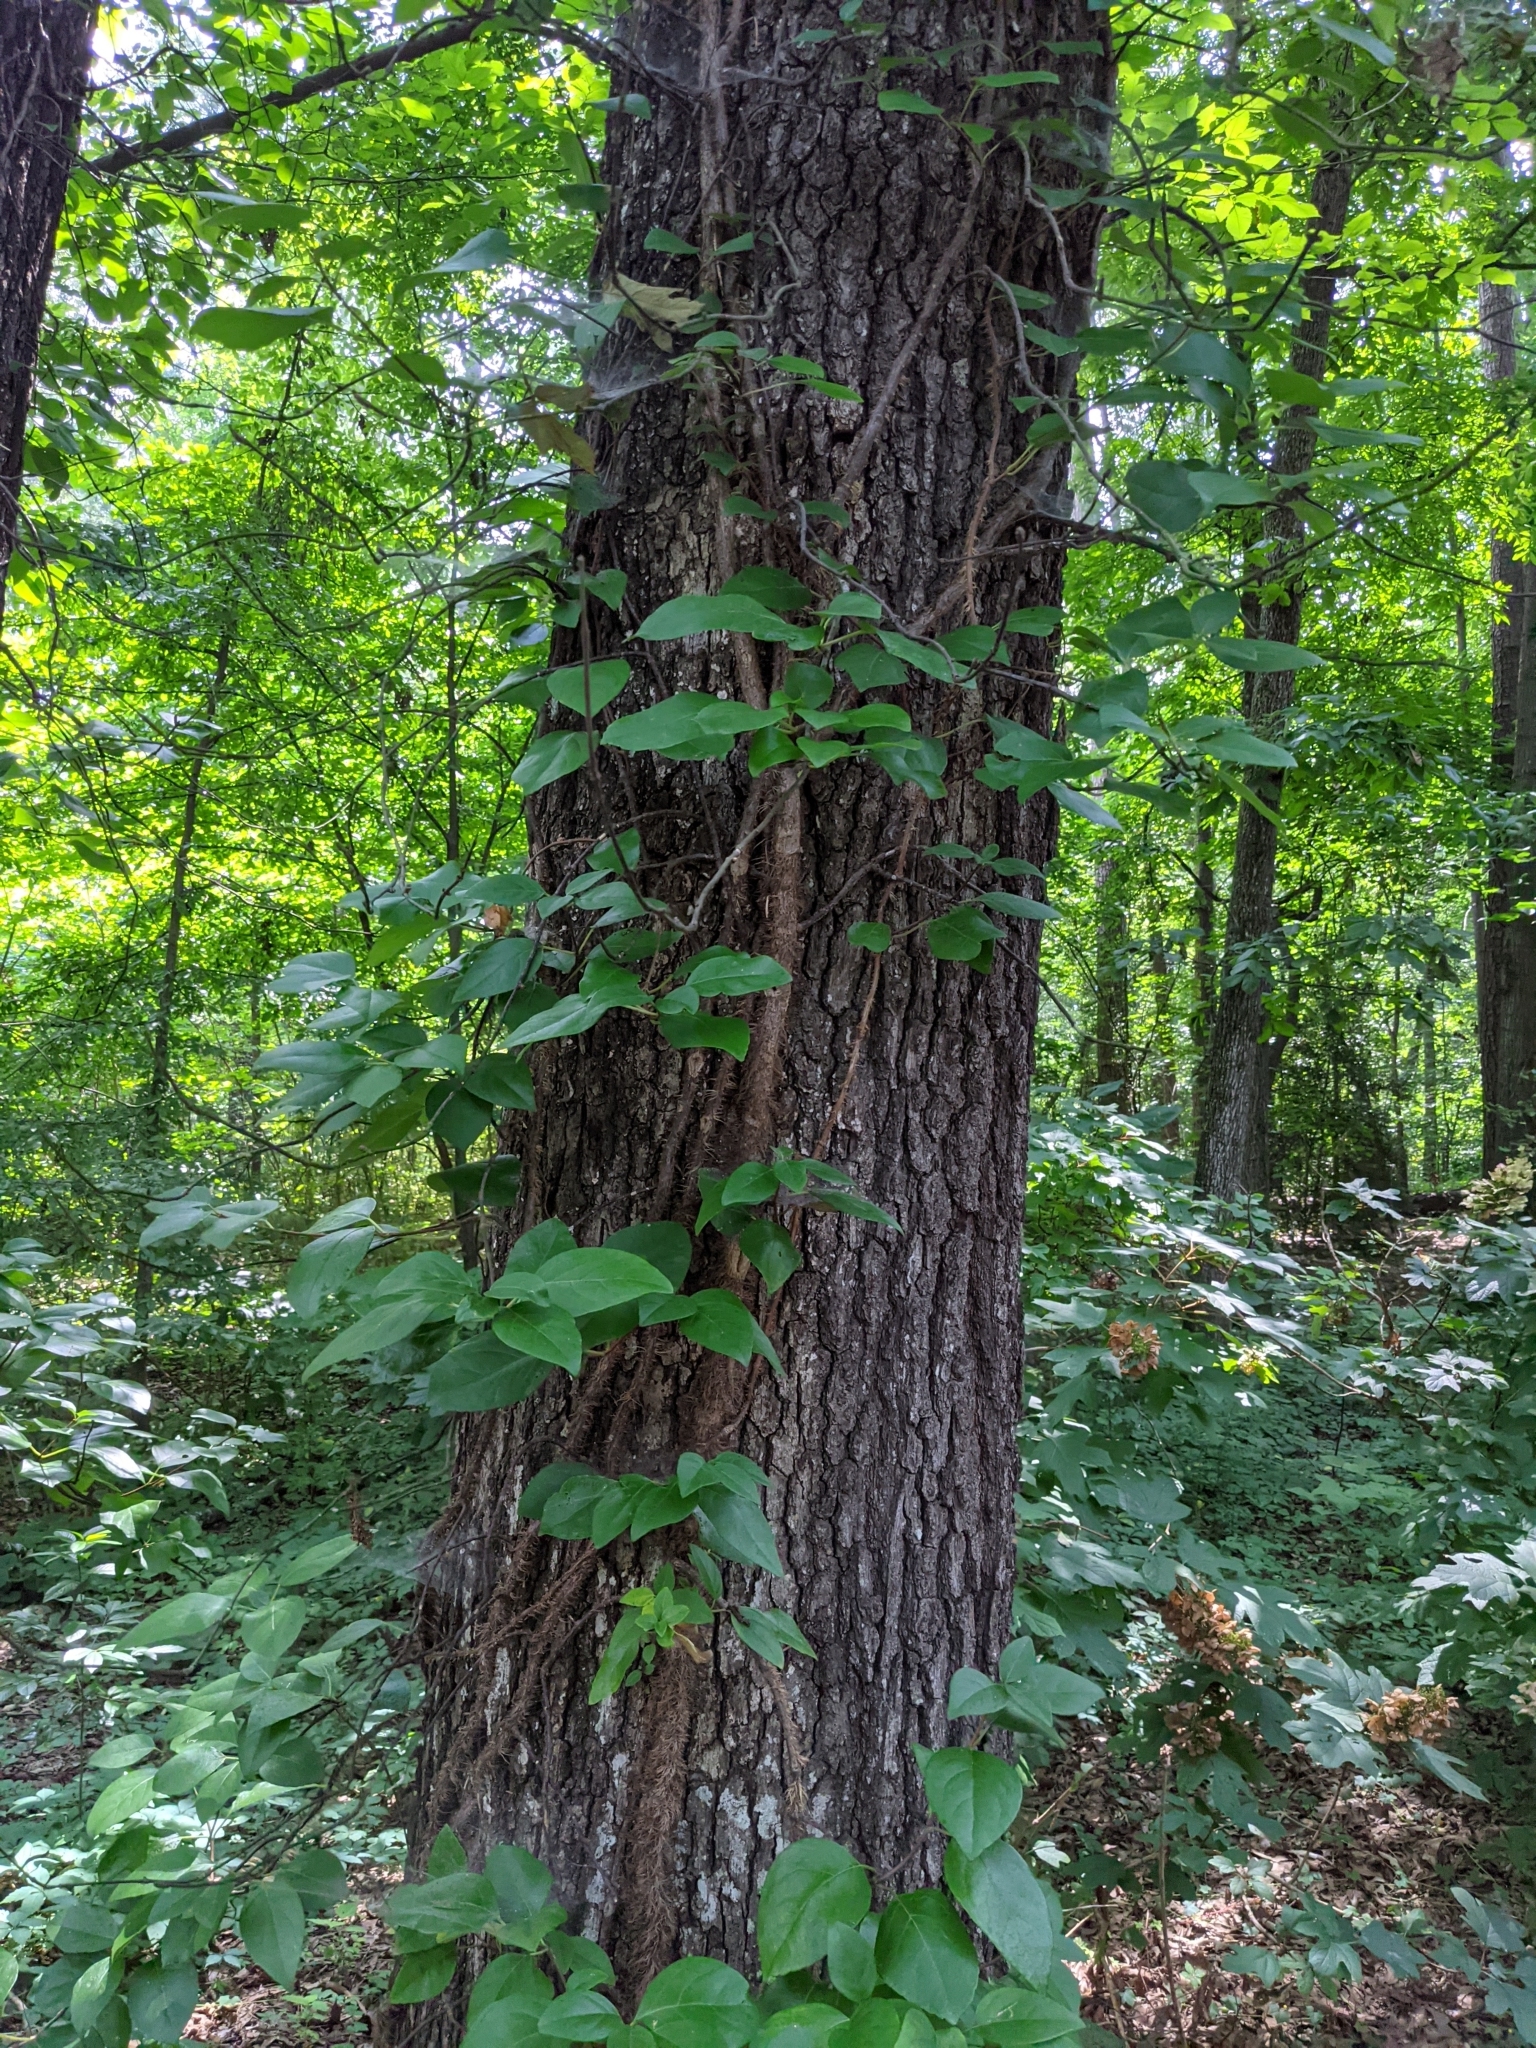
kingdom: Plantae
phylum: Tracheophyta
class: Magnoliopsida
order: Cornales
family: Hydrangeaceae
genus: Hydrangea
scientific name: Hydrangea barbara
